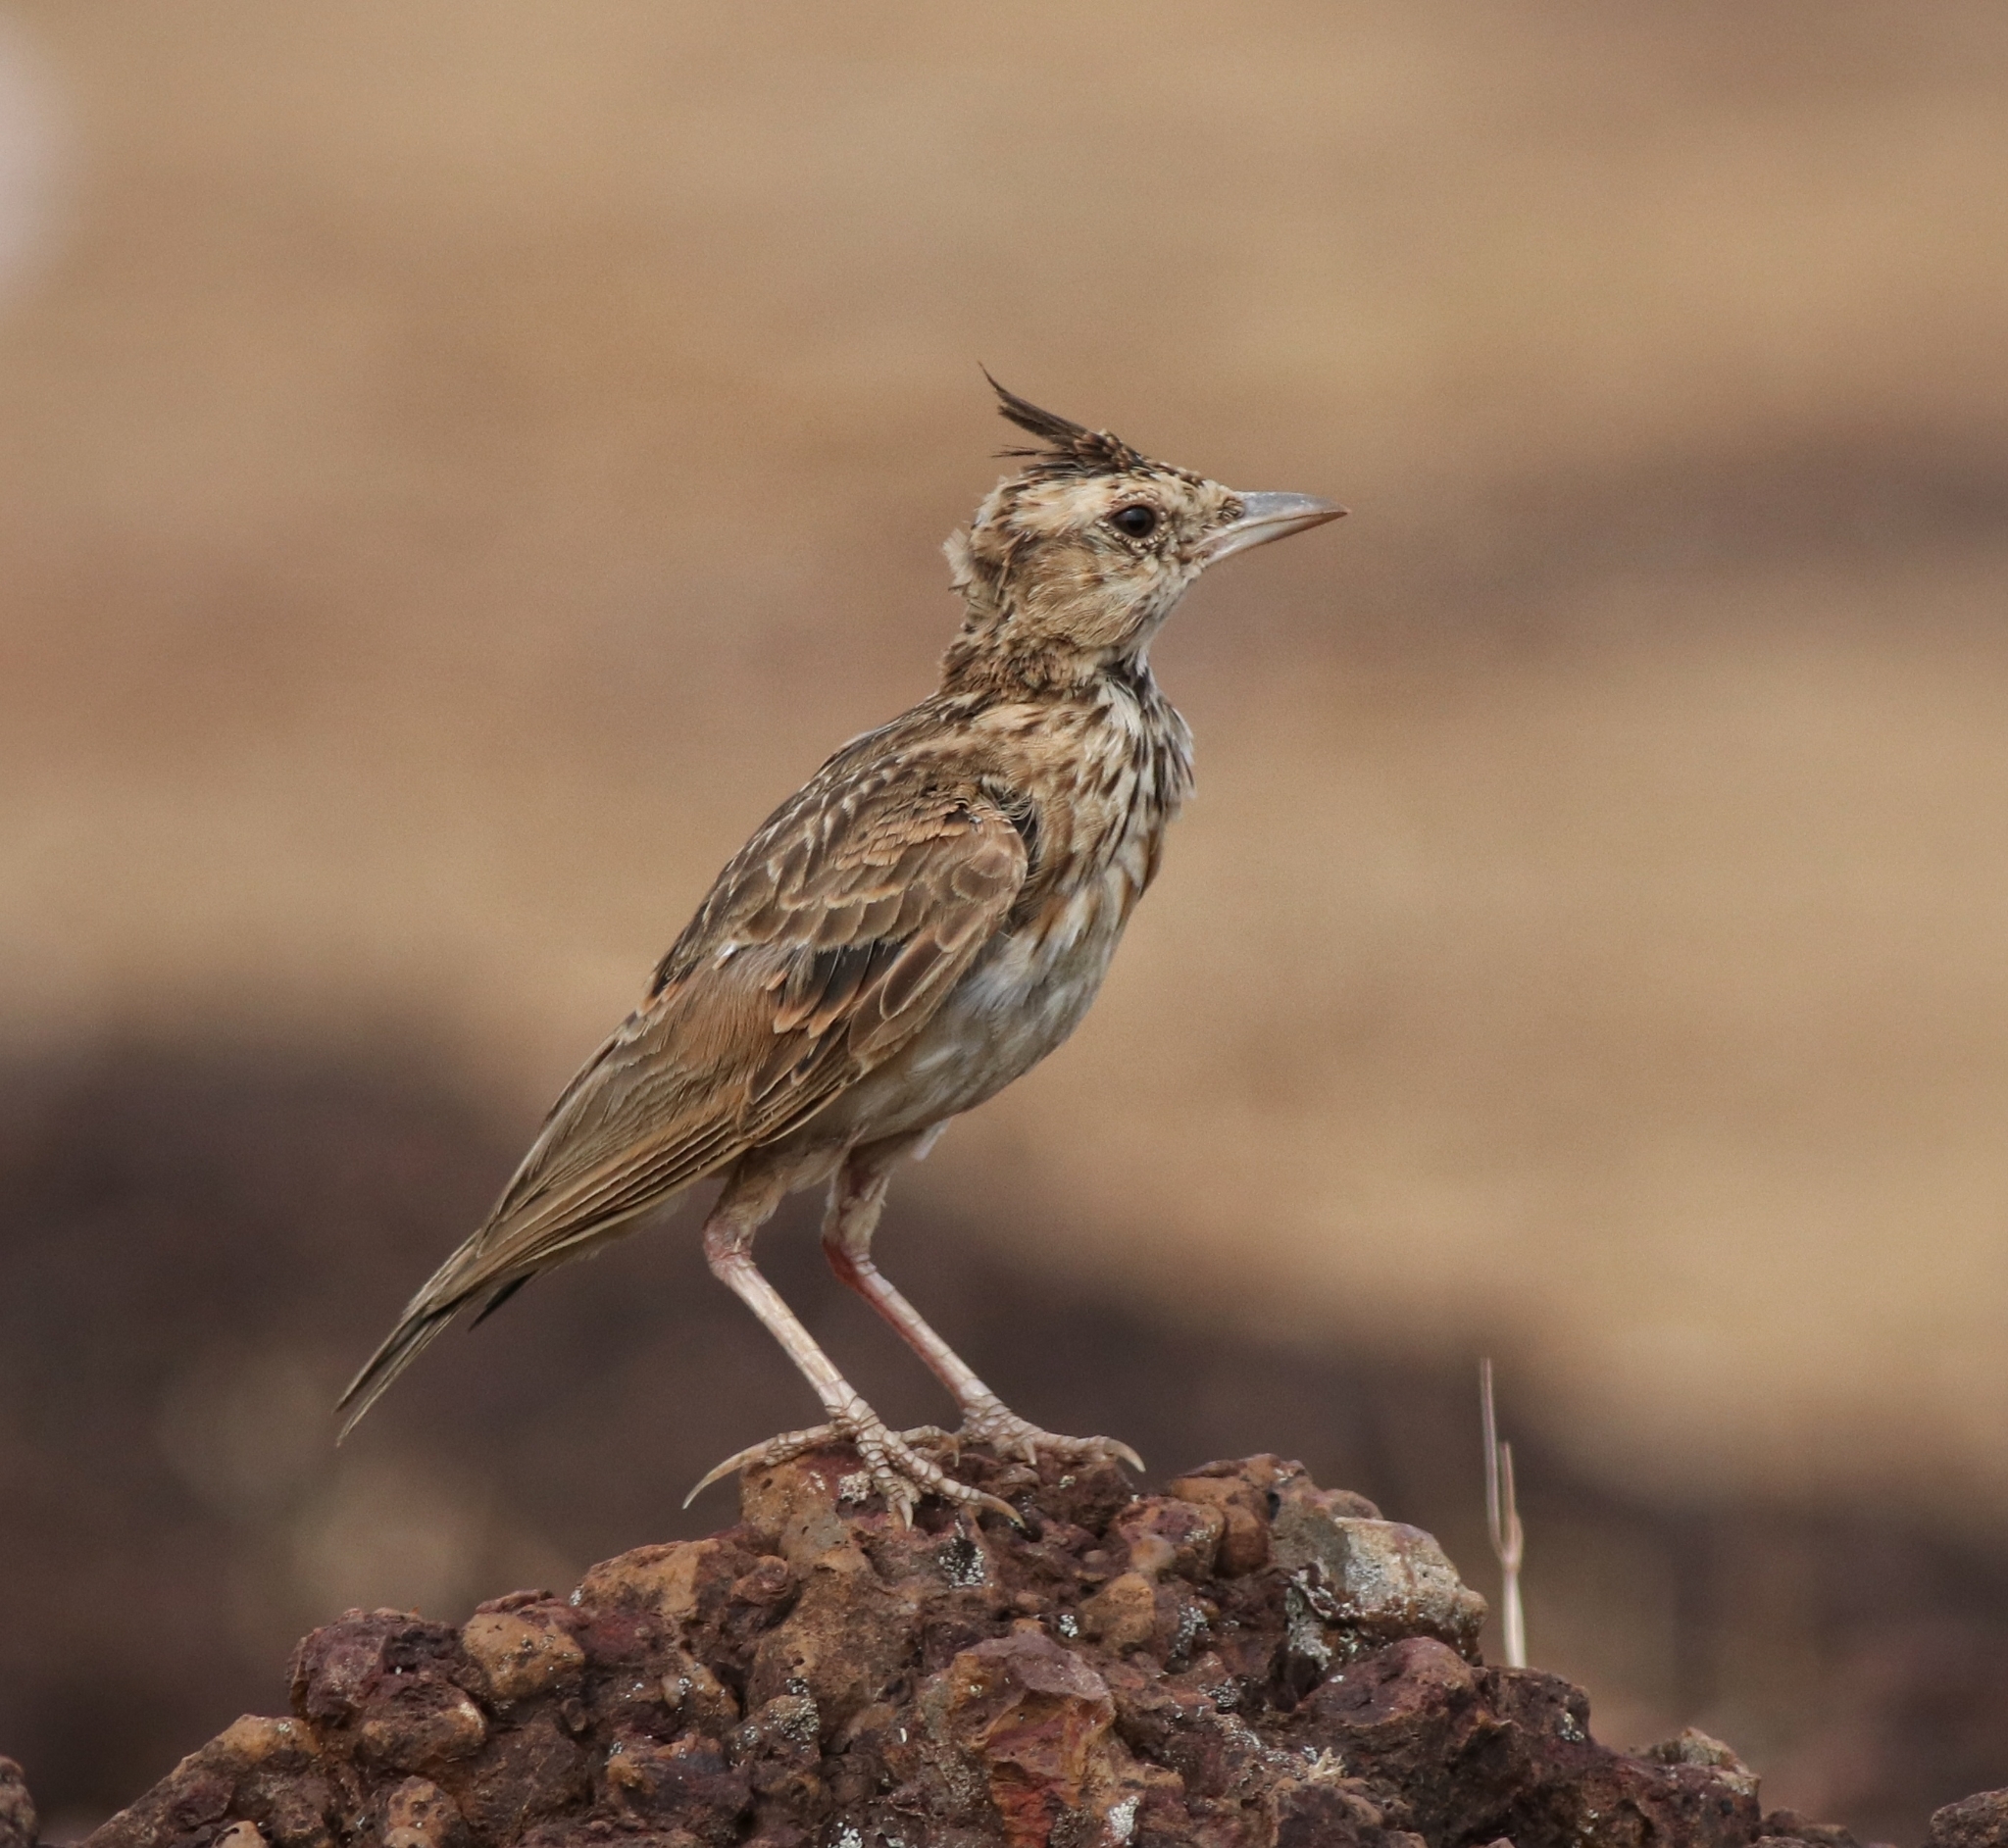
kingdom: Animalia
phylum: Chordata
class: Aves
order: Passeriformes
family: Alaudidae
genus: Galerida
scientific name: Galerida malabarica
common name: Malabar lark
